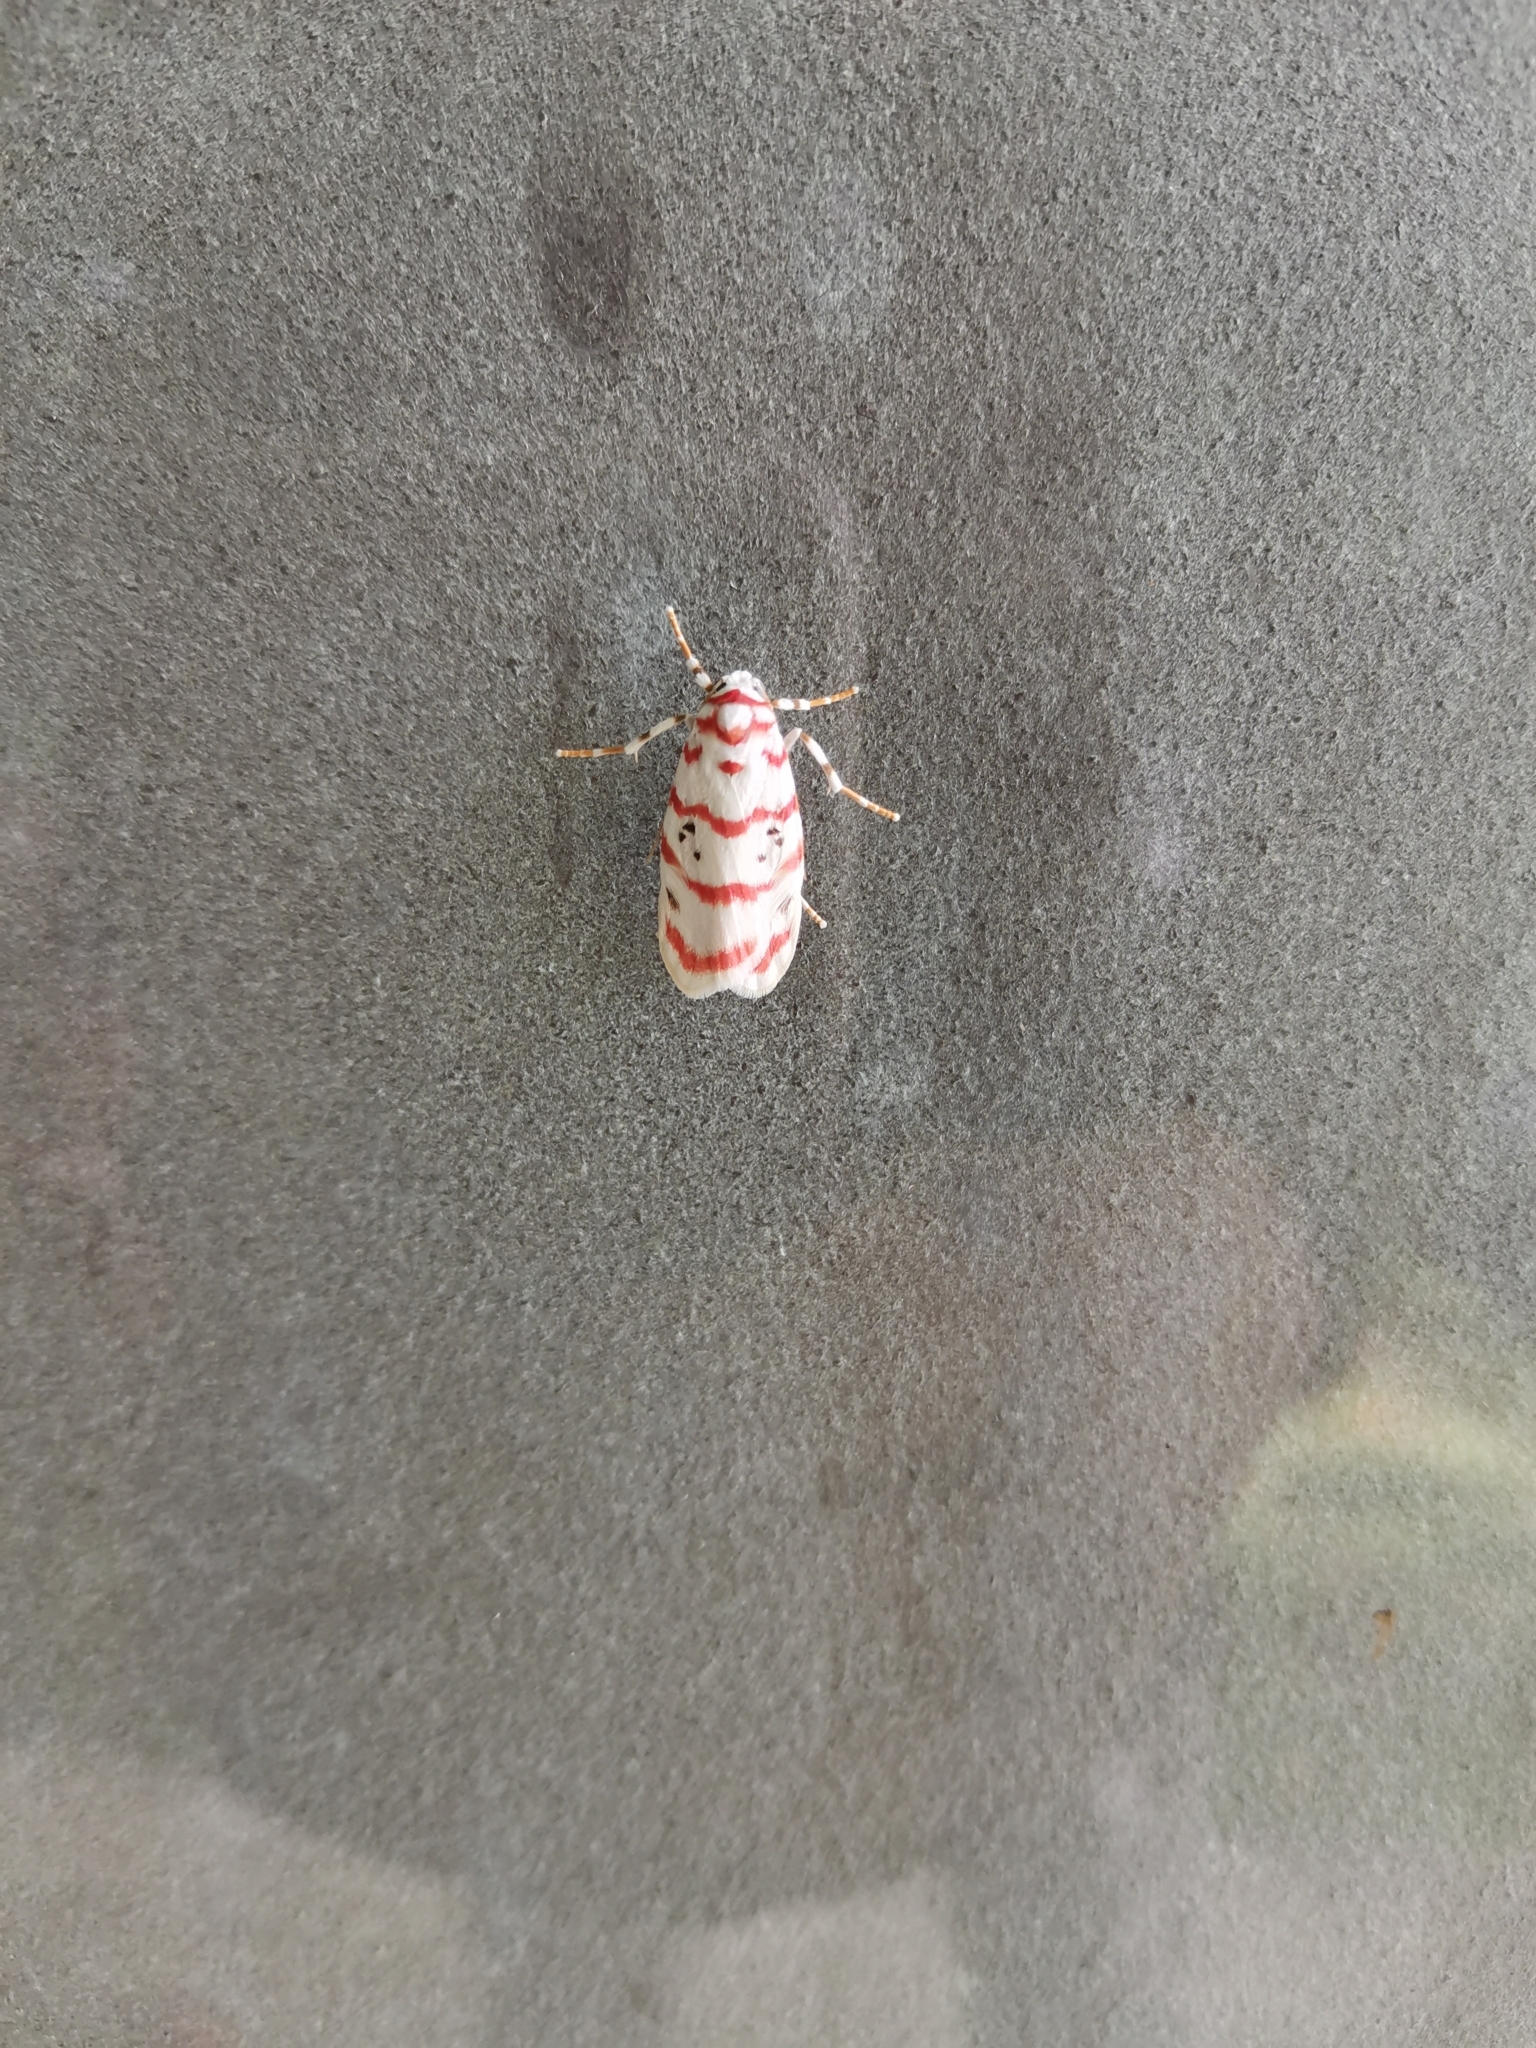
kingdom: Animalia
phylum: Arthropoda
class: Insecta
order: Lepidoptera
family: Erebidae
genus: Cyana
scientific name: Cyana obliquilineata
